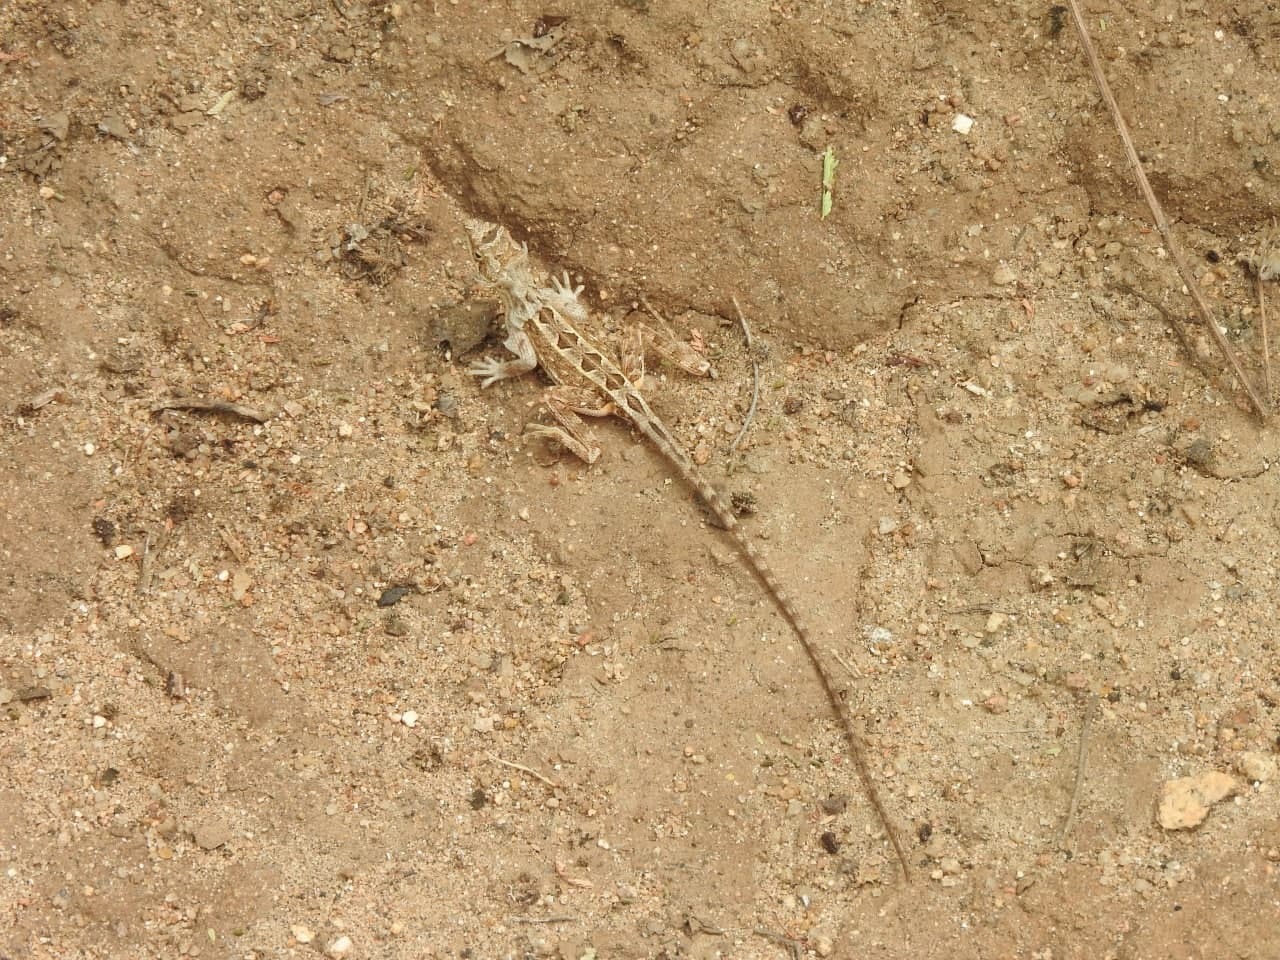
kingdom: Animalia
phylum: Chordata
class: Squamata
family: Agamidae
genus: Sitana
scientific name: Sitana ponticeriana
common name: Pondichéry fan throated lizard
